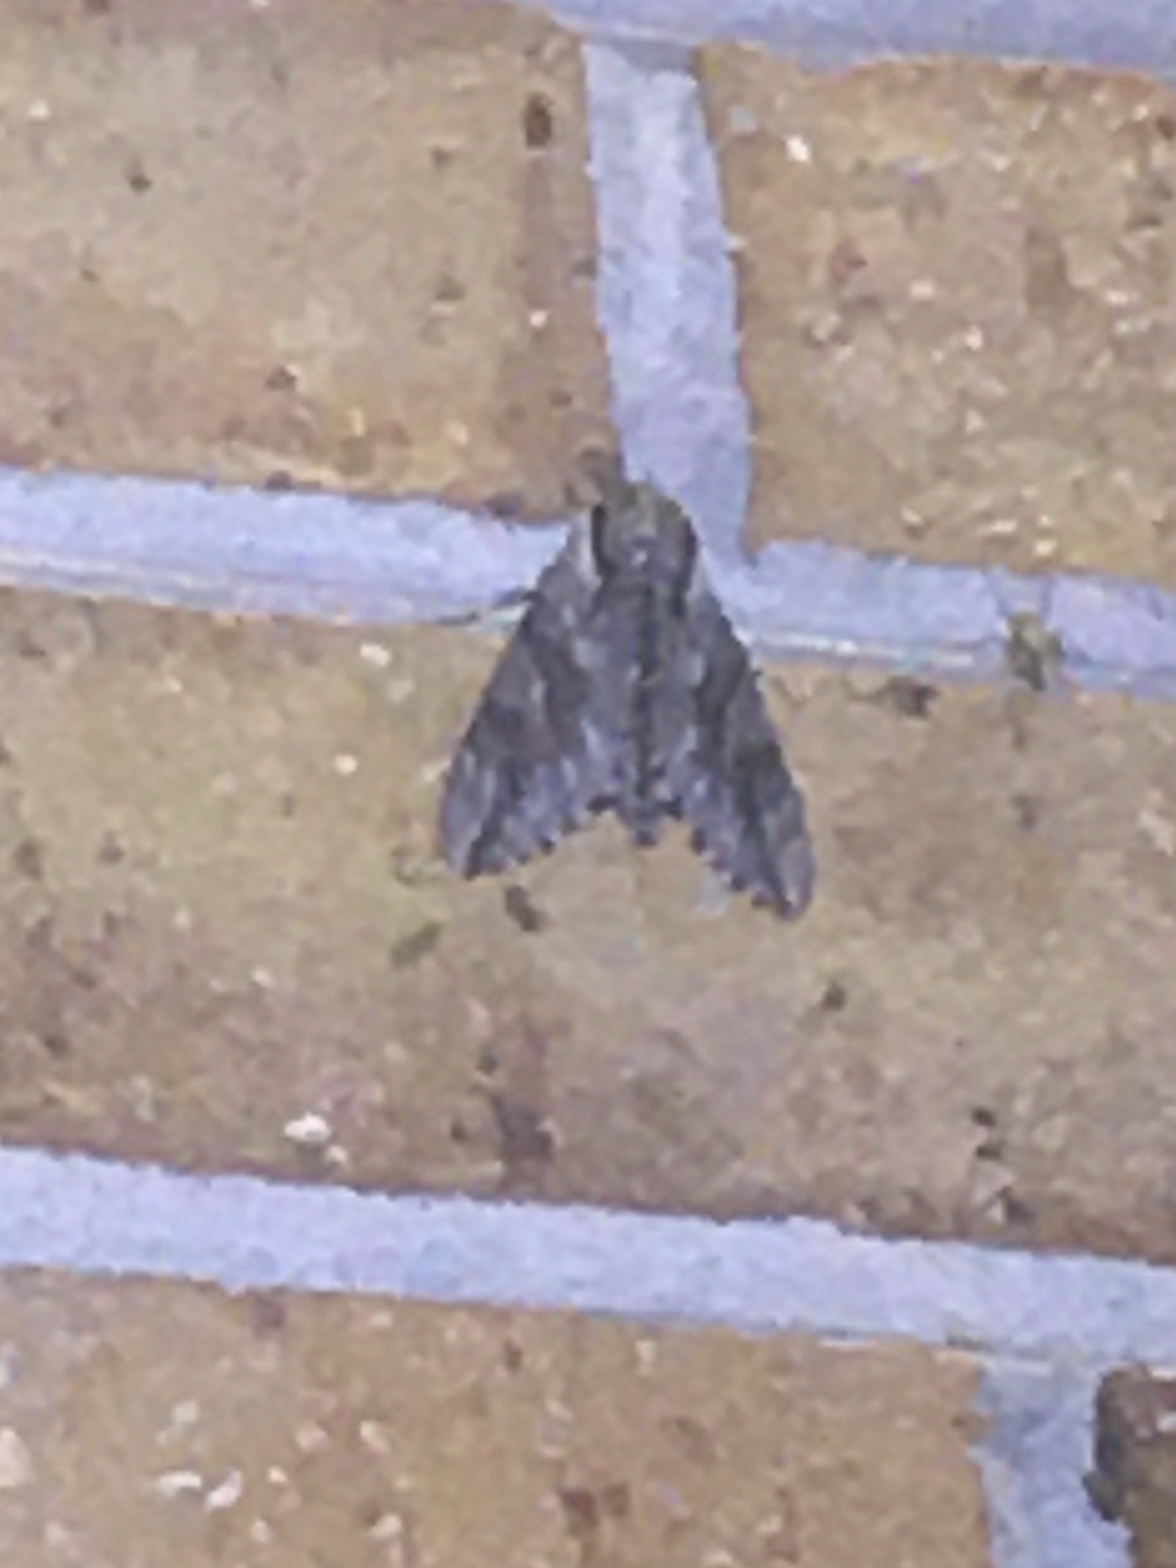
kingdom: Animalia
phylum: Arthropoda
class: Insecta
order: Lepidoptera
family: Sphingidae
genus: Paratrea
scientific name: Paratrea plebeja
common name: Plebian sphinx
